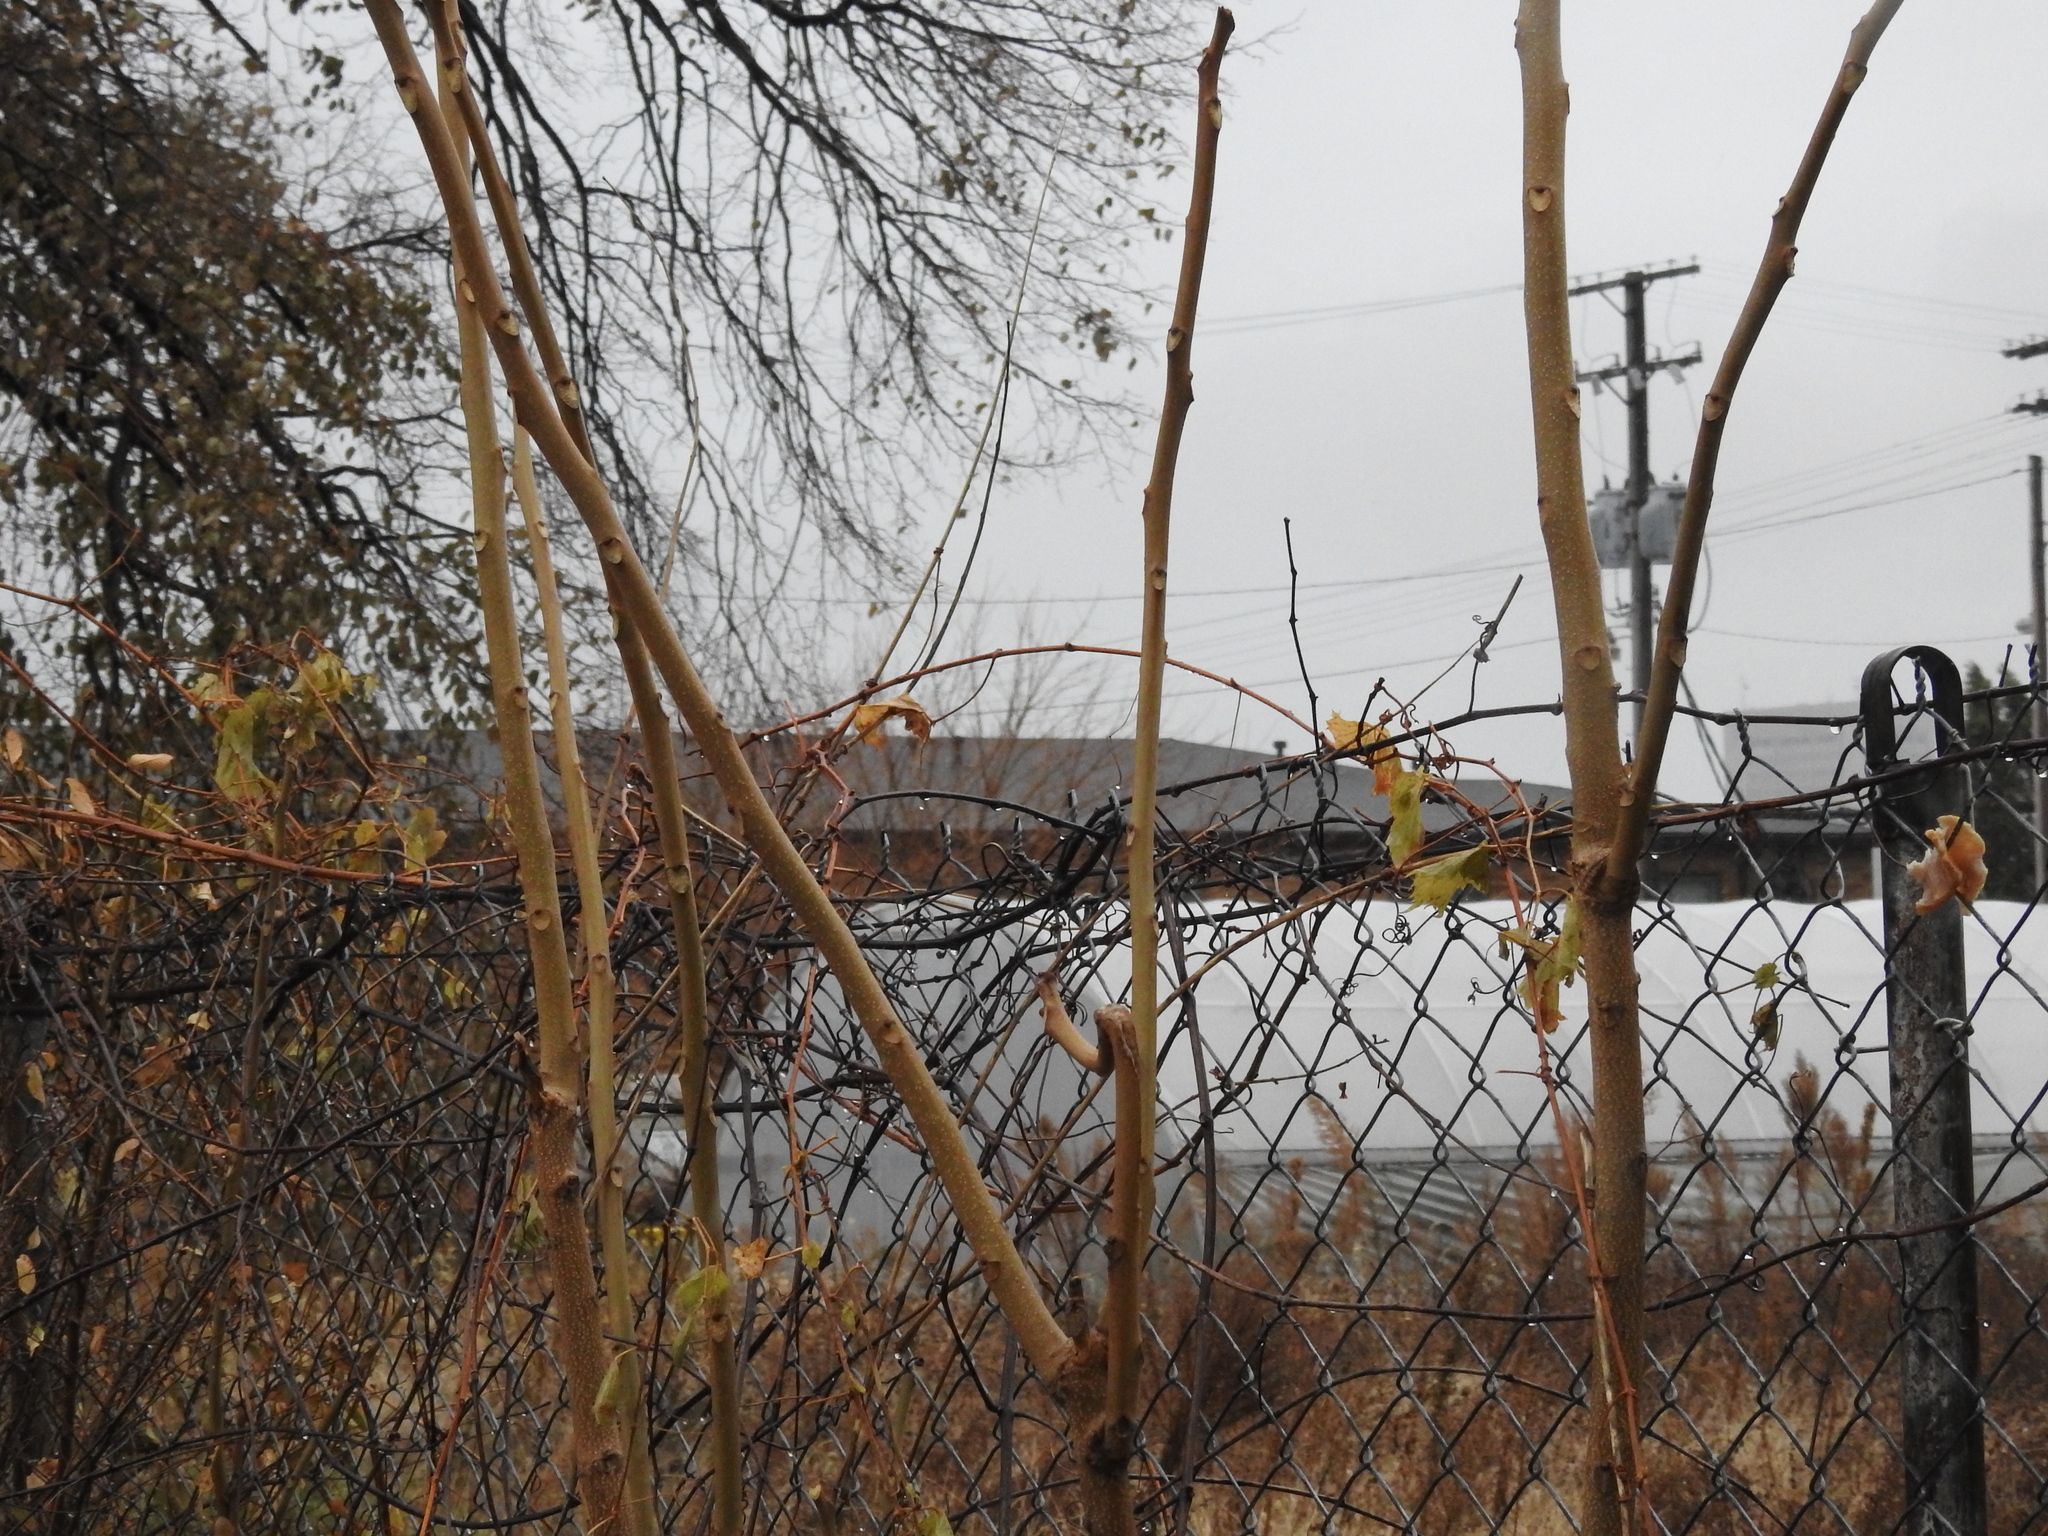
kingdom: Plantae
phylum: Tracheophyta
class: Magnoliopsida
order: Sapindales
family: Simaroubaceae
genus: Ailanthus
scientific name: Ailanthus altissima
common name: Tree-of-heaven
